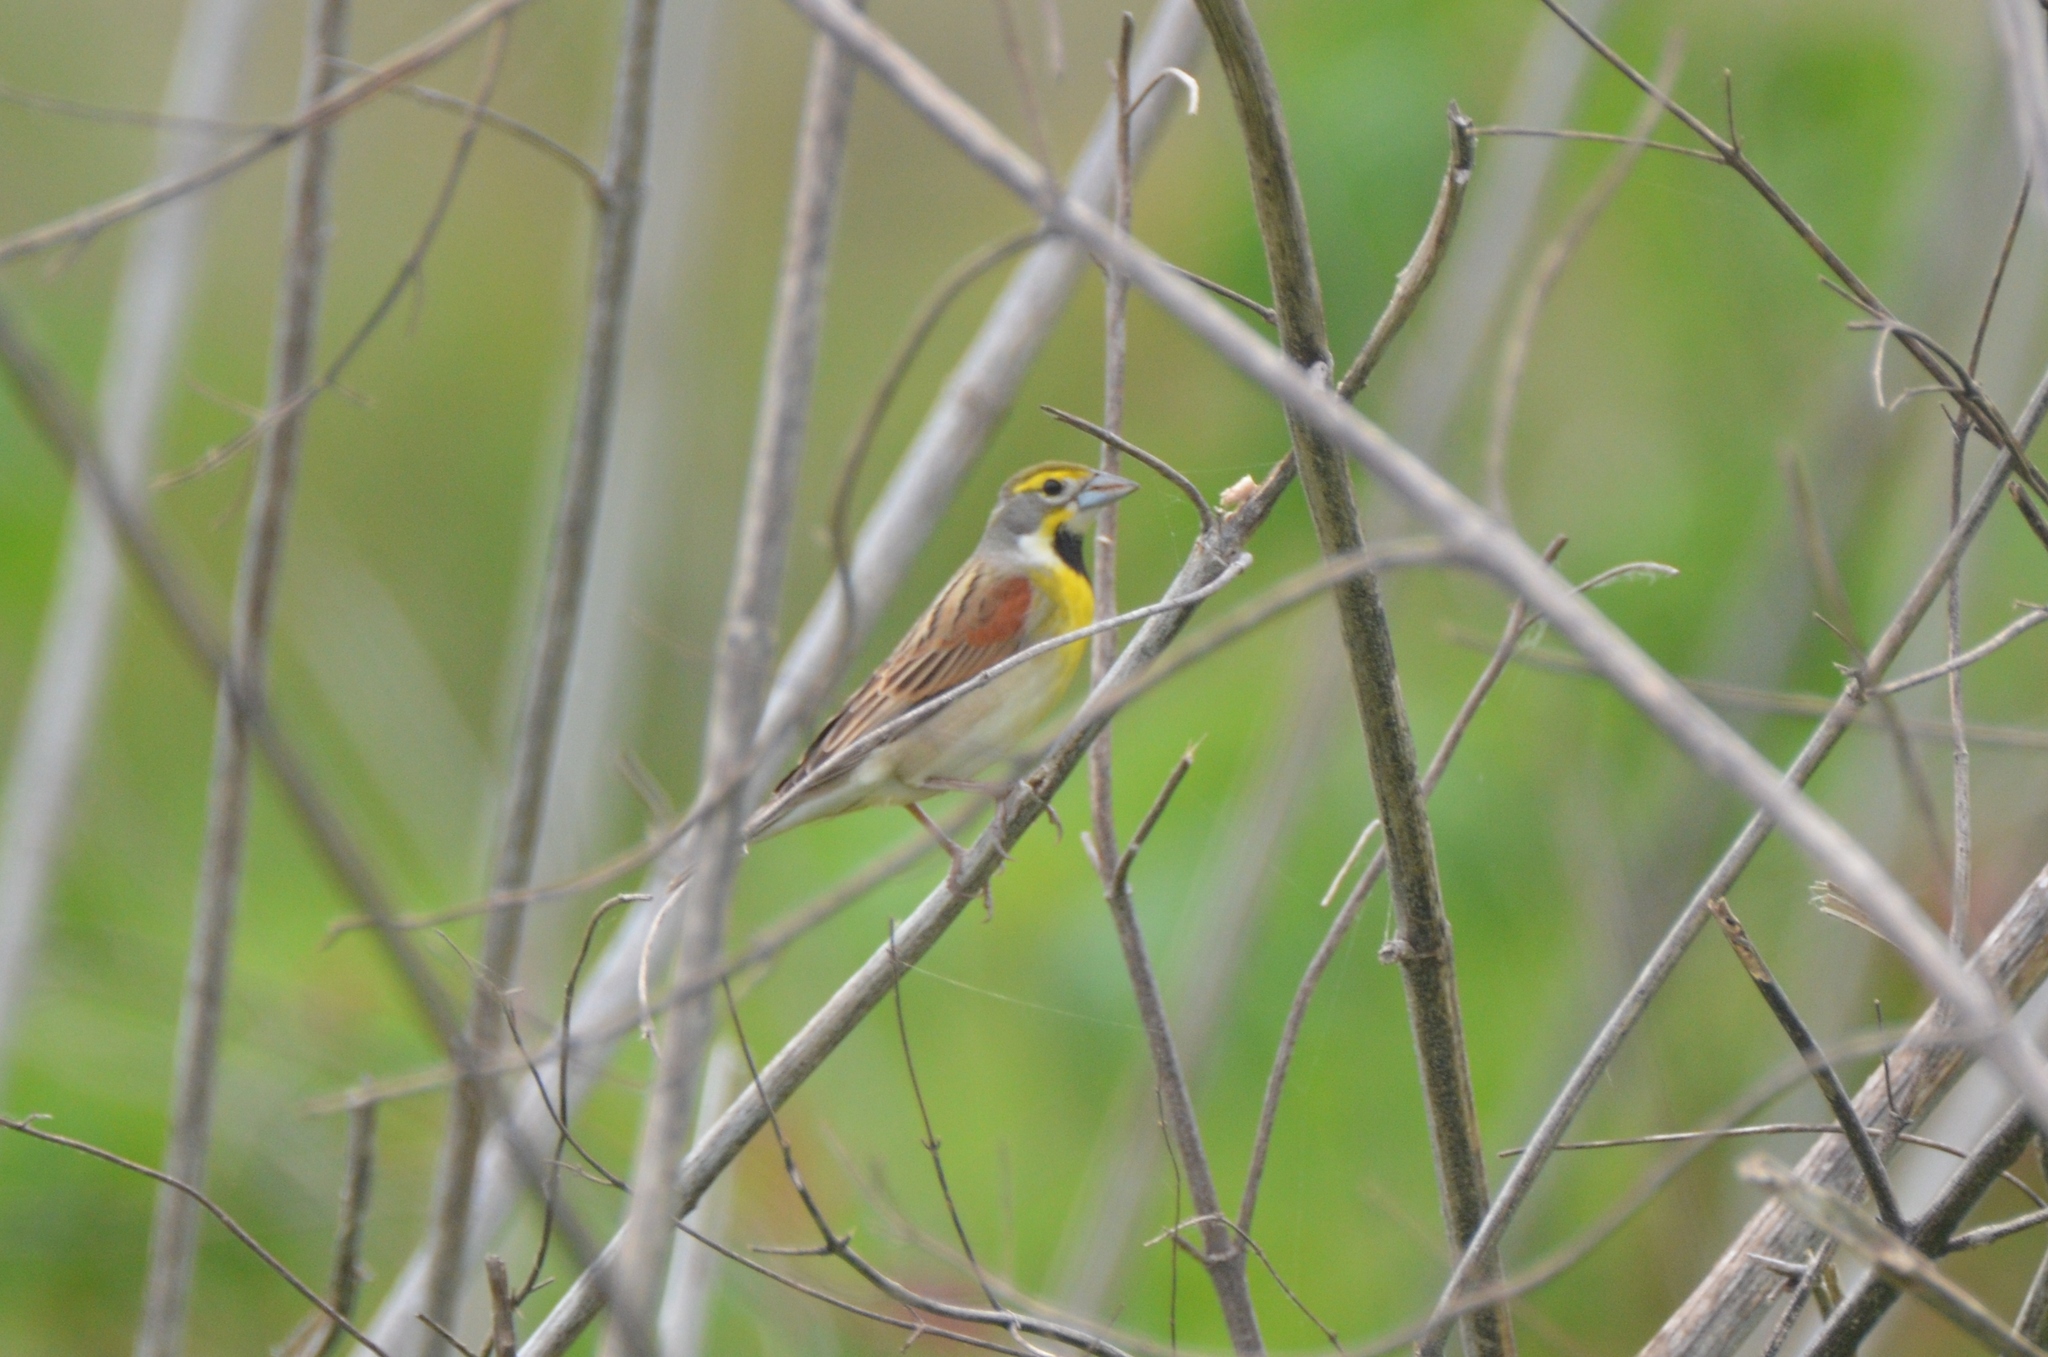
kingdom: Animalia
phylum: Chordata
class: Aves
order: Passeriformes
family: Cardinalidae
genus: Spiza
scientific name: Spiza americana
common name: Dickcissel
